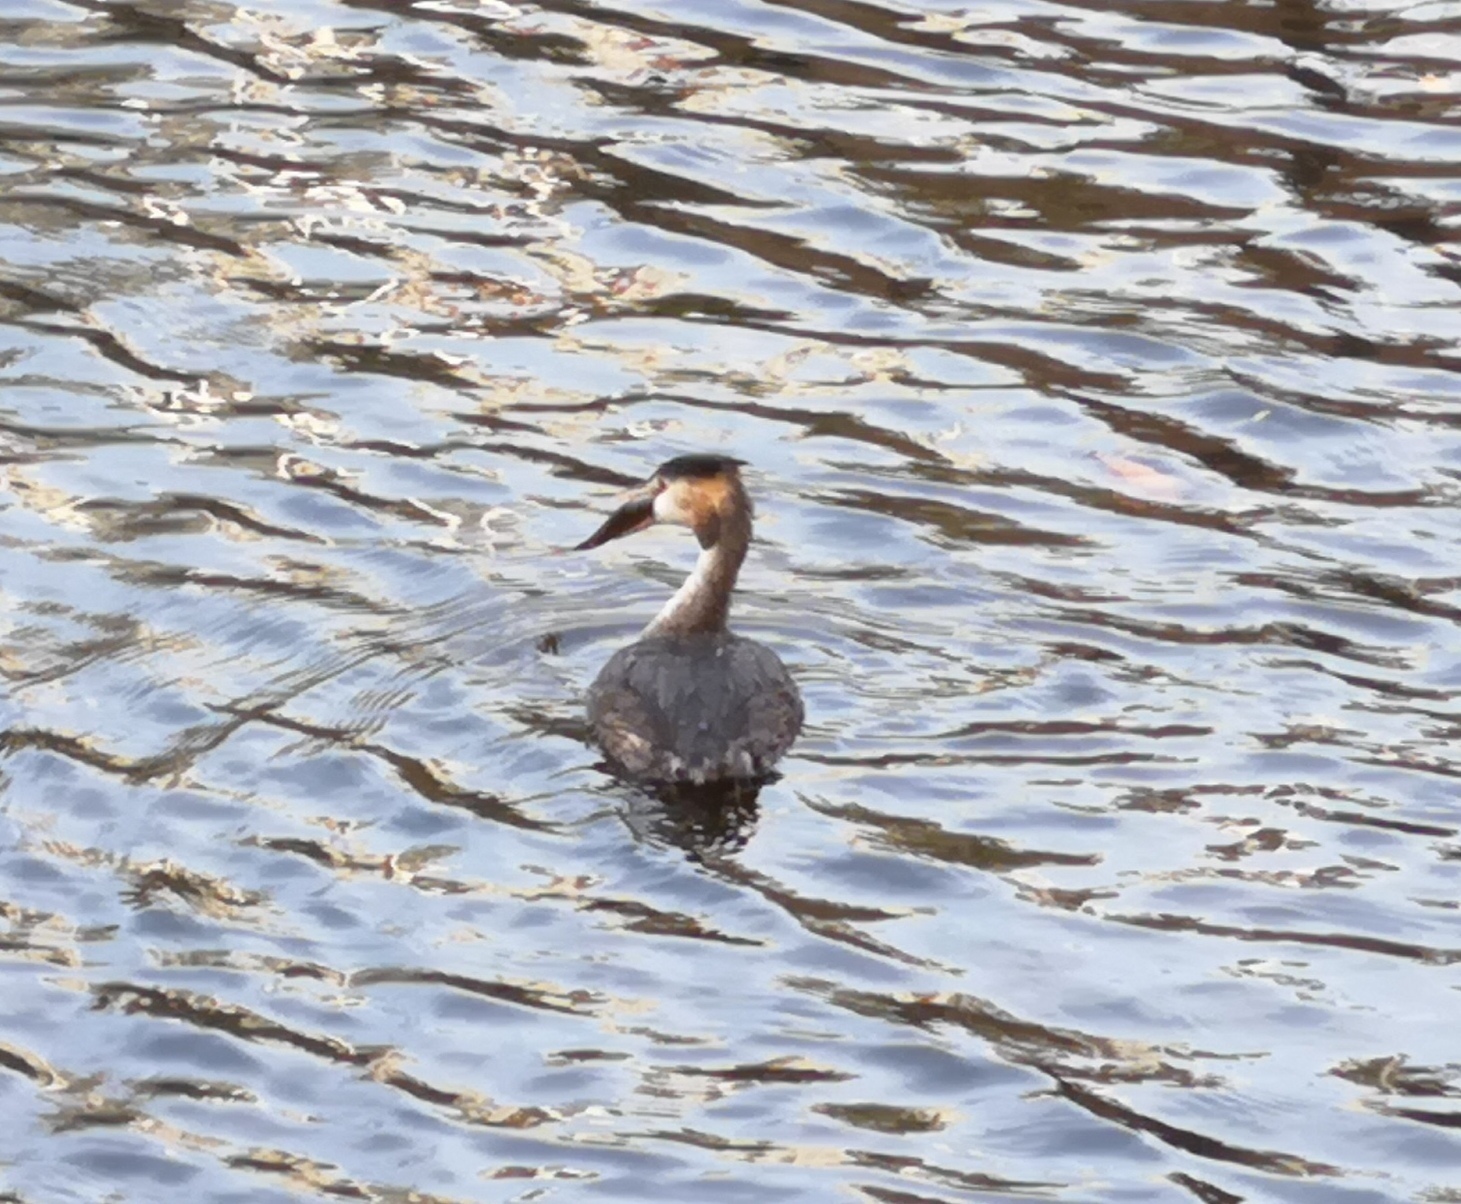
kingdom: Animalia
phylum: Chordata
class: Aves
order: Podicipediformes
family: Podicipedidae
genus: Podiceps
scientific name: Podiceps cristatus
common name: Great crested grebe
